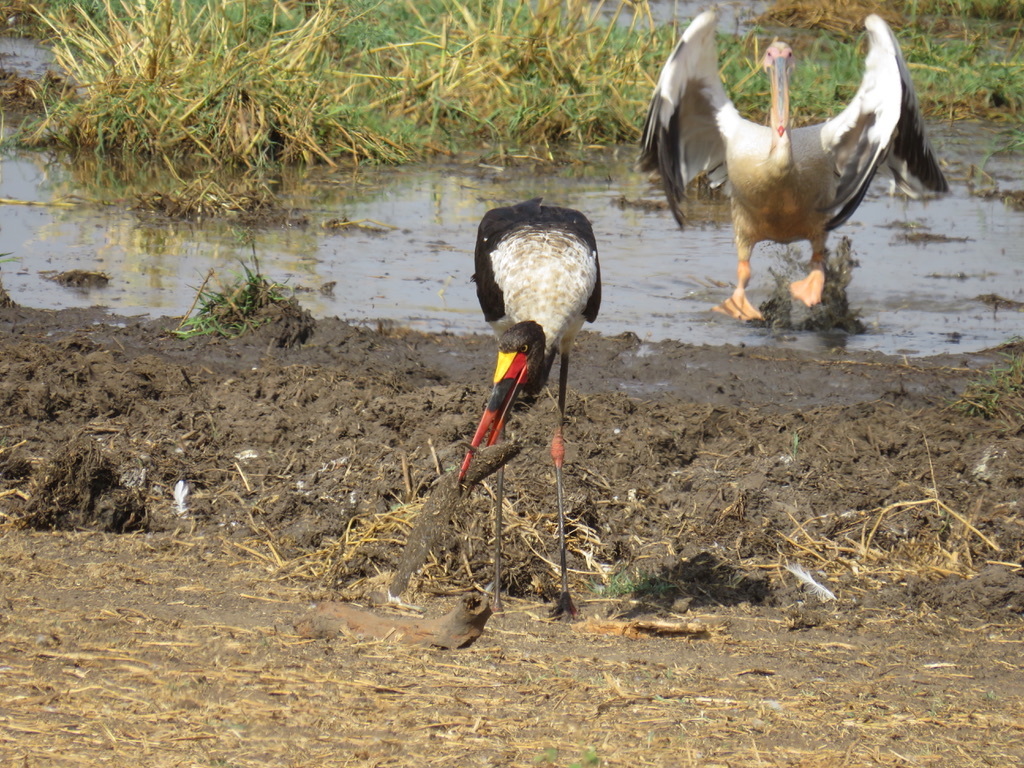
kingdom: Animalia
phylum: Chordata
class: Aves
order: Ciconiiformes
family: Ciconiidae
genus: Ephippiorhynchus
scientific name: Ephippiorhynchus senegalensis
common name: Saddle-billed stork
